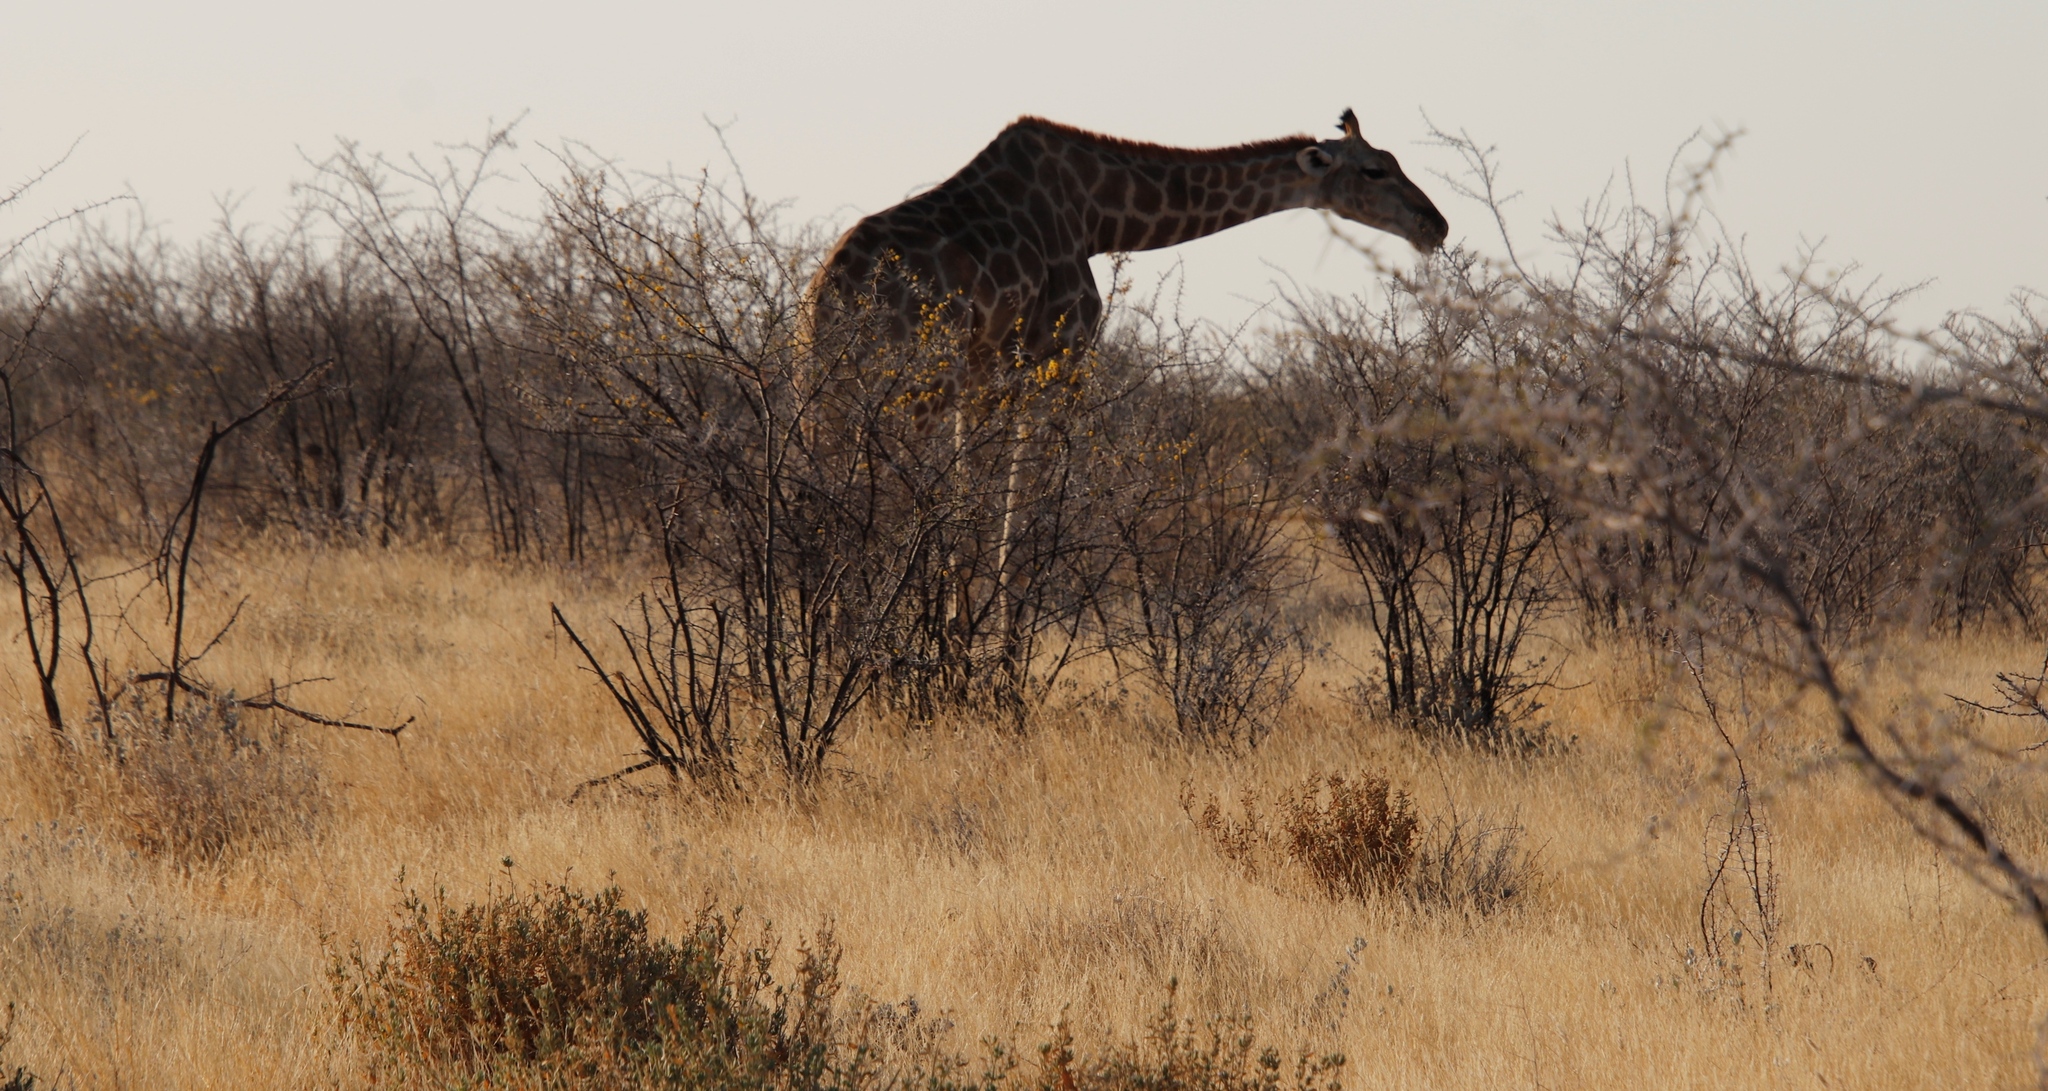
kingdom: Plantae
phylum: Tracheophyta
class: Magnoliopsida
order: Fabales
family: Fabaceae
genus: Vachellia
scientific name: Vachellia nebrownii
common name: Water acacia
